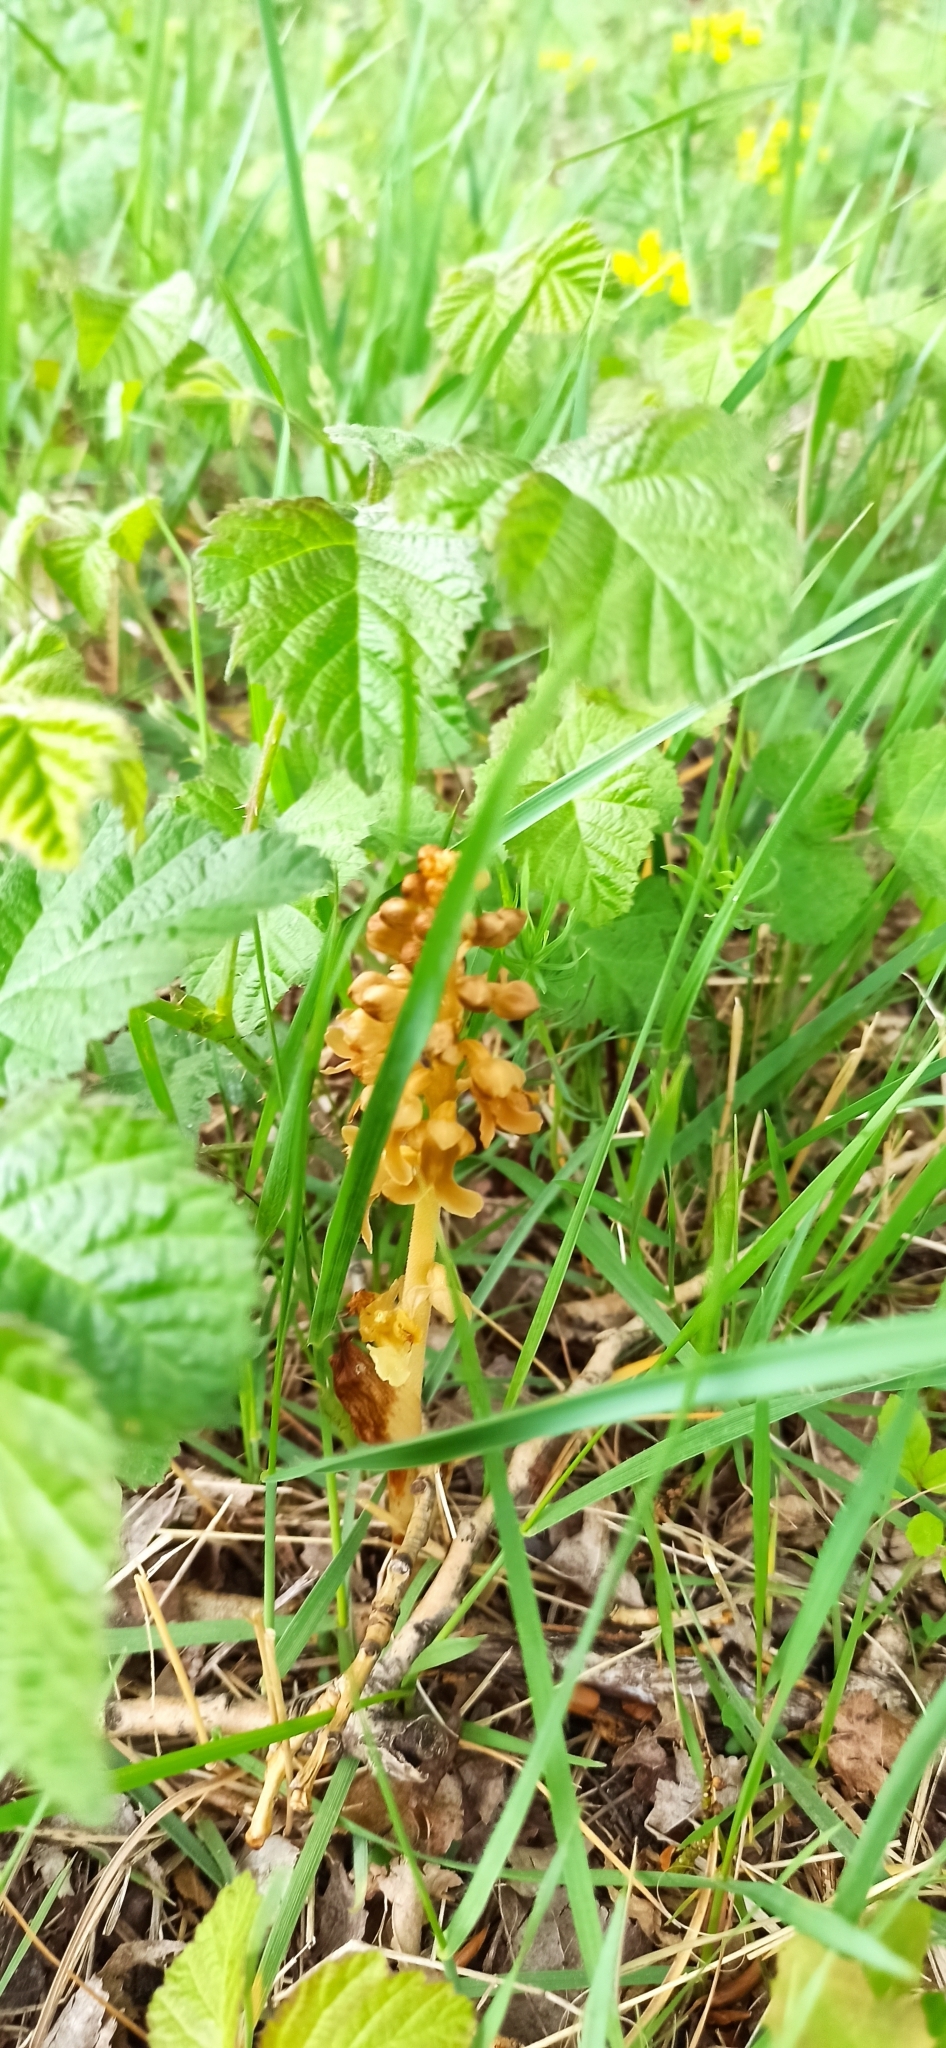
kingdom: Plantae
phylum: Tracheophyta
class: Liliopsida
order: Asparagales
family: Orchidaceae
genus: Neottia
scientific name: Neottia nidus-avis
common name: Bird's-nest orchid
